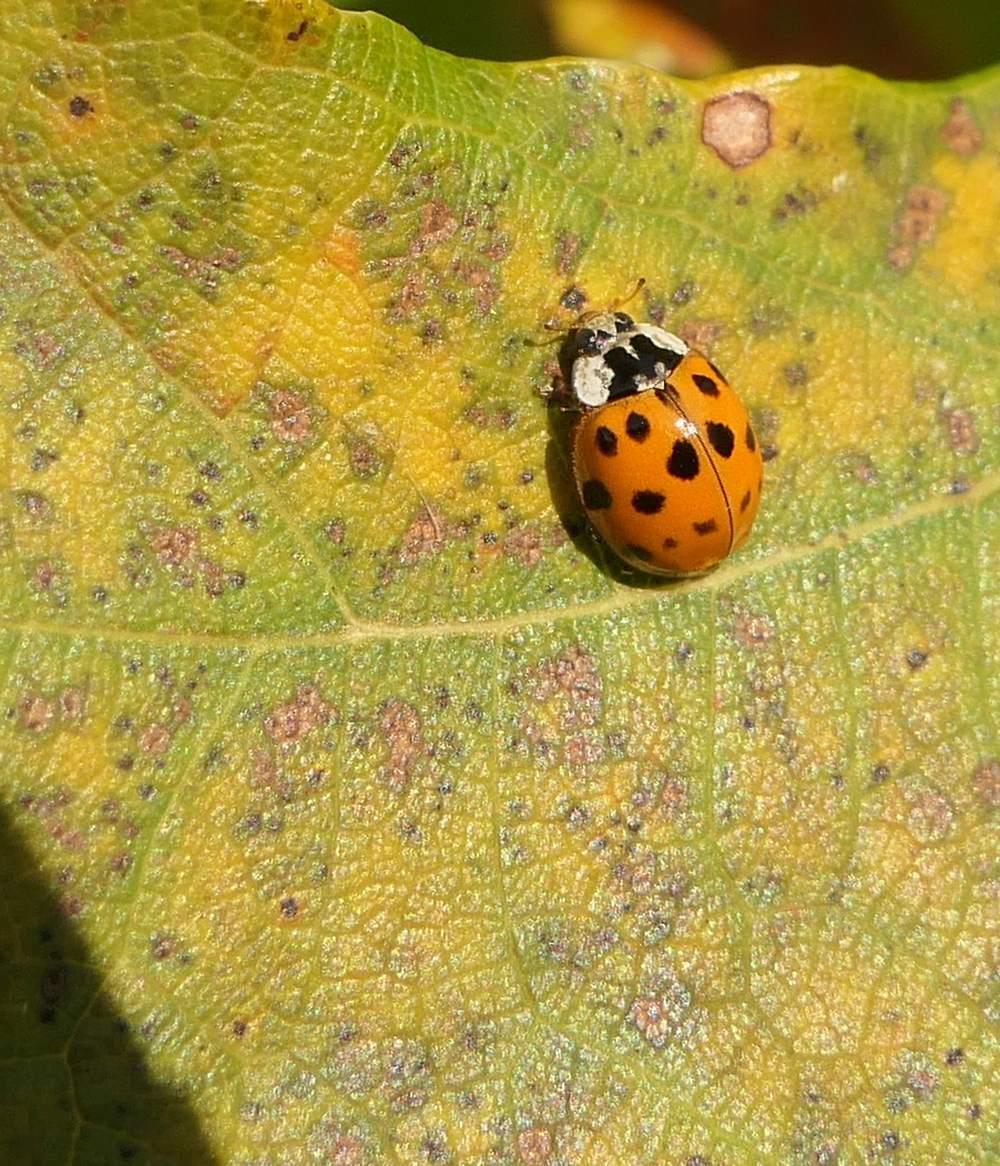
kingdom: Animalia
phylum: Arthropoda
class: Insecta
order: Coleoptera
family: Coccinellidae
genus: Harmonia
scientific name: Harmonia axyridis
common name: Harlequin ladybird
